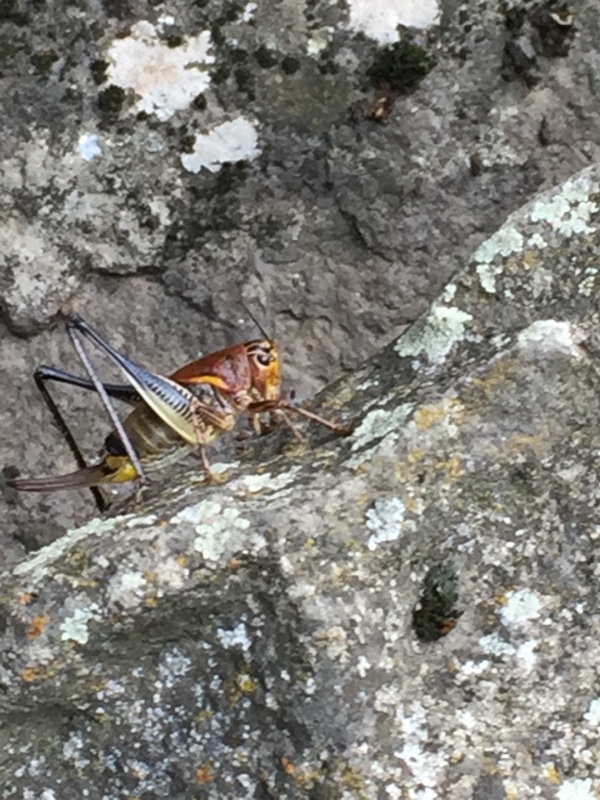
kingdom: Animalia
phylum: Arthropoda
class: Insecta
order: Orthoptera
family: Tettigoniidae
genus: Uvarovistia
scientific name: Uvarovistia satunini
